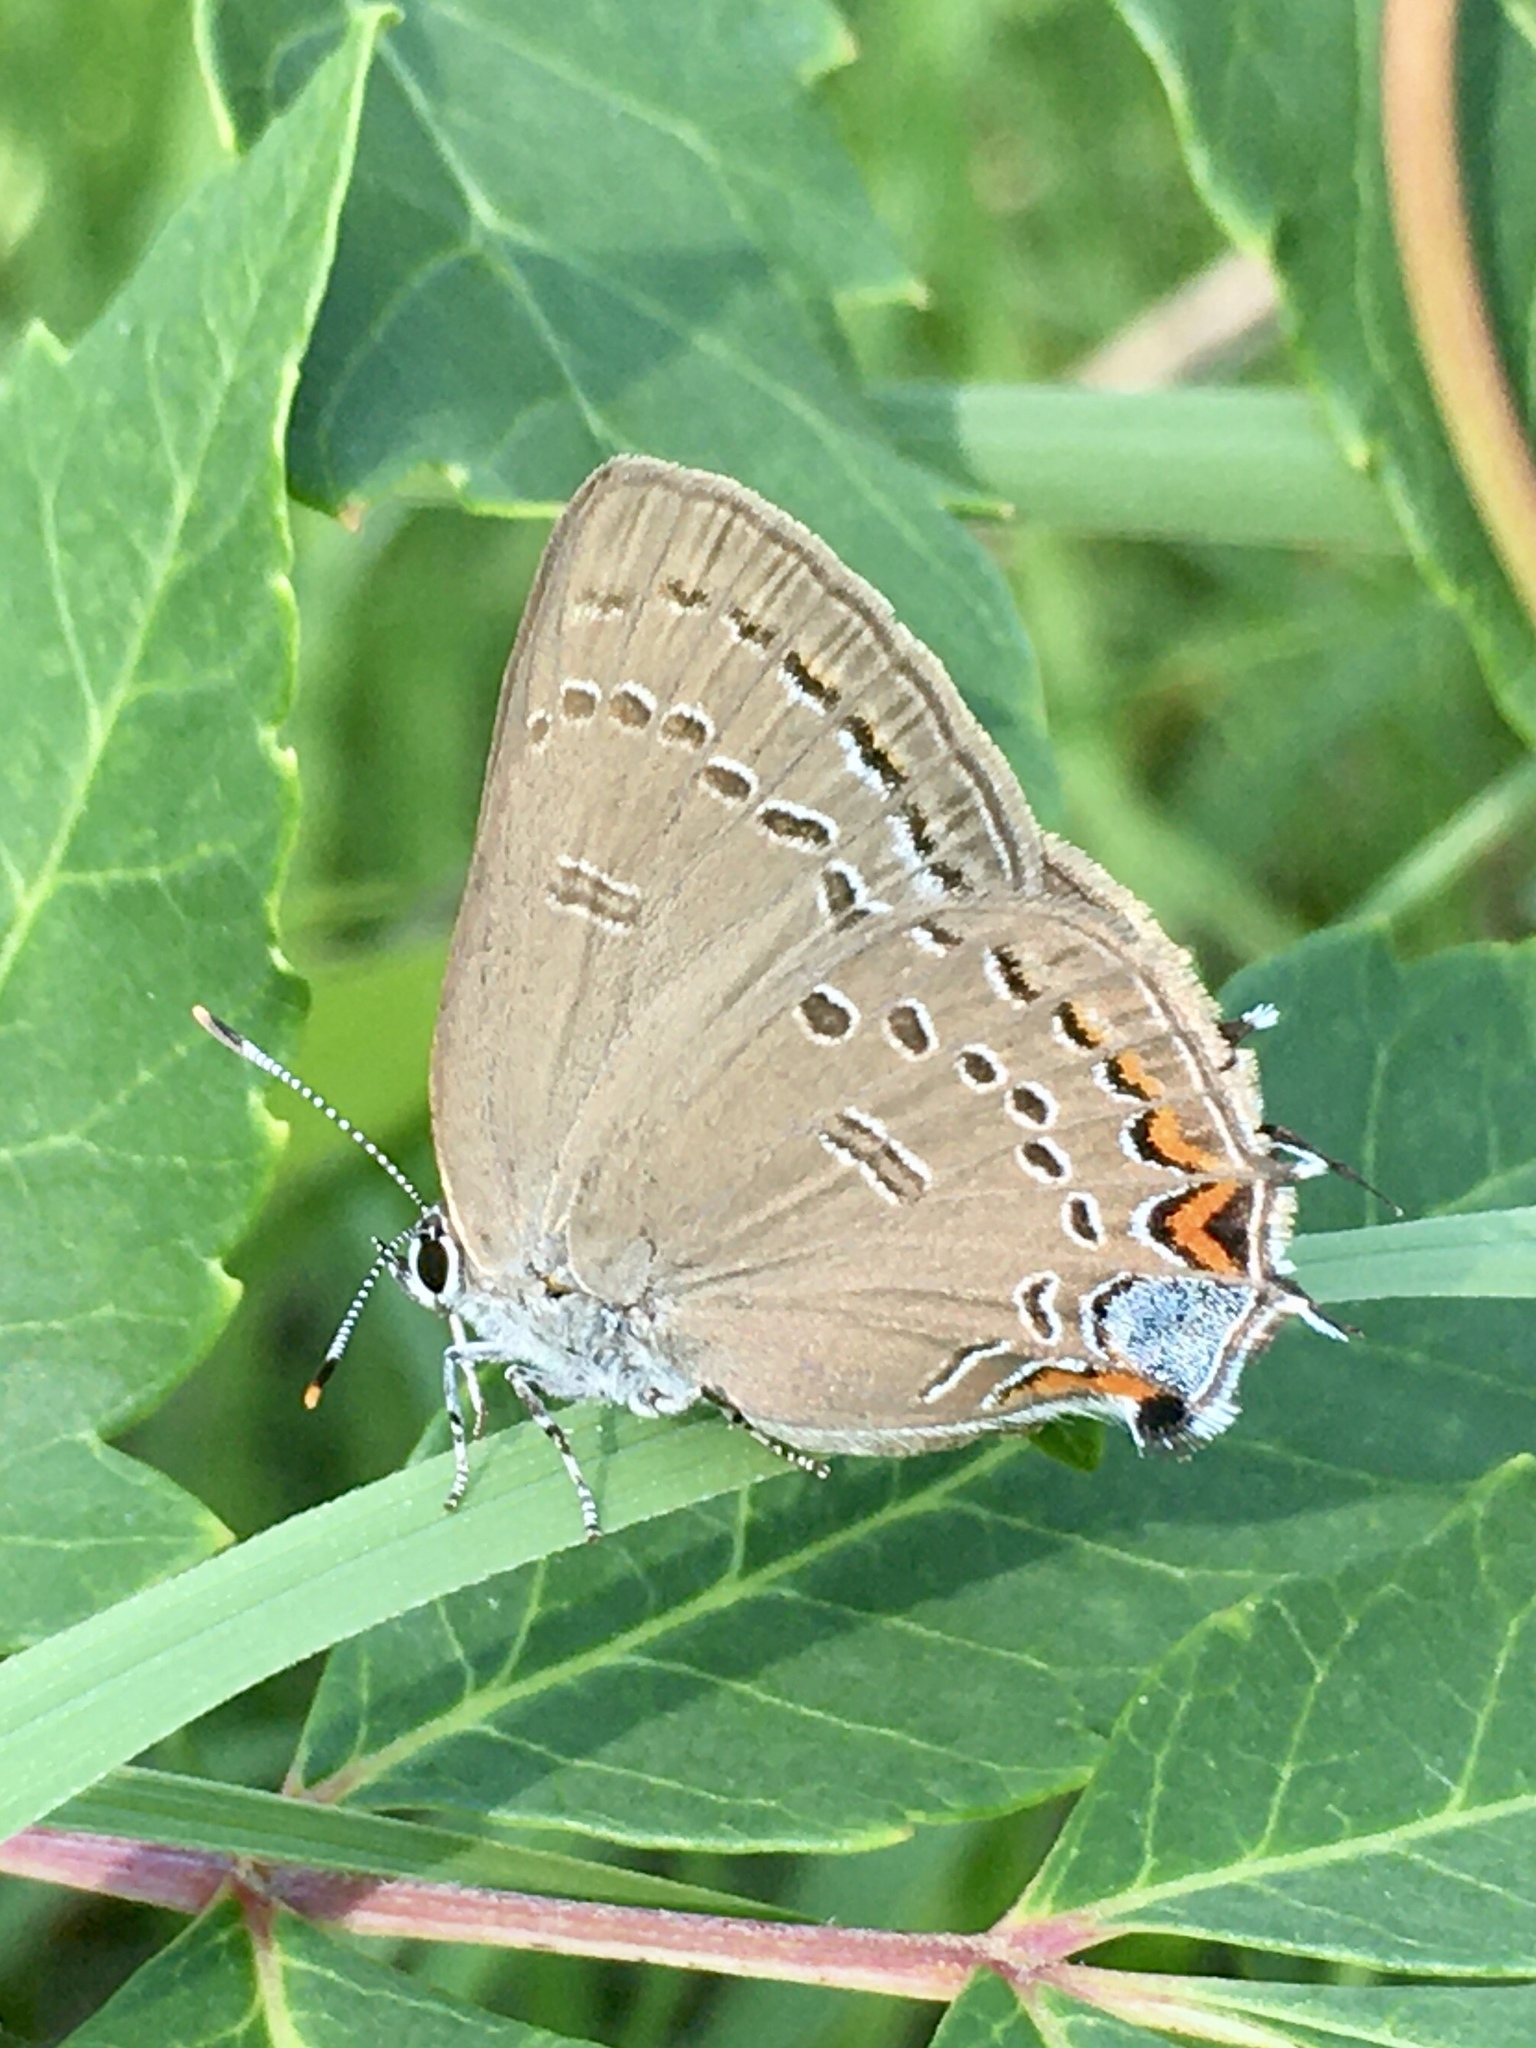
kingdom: Animalia
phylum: Arthropoda
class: Insecta
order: Lepidoptera
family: Lycaenidae
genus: Satyrium
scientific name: Satyrium edwardsii
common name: Edwards' hairstreak
